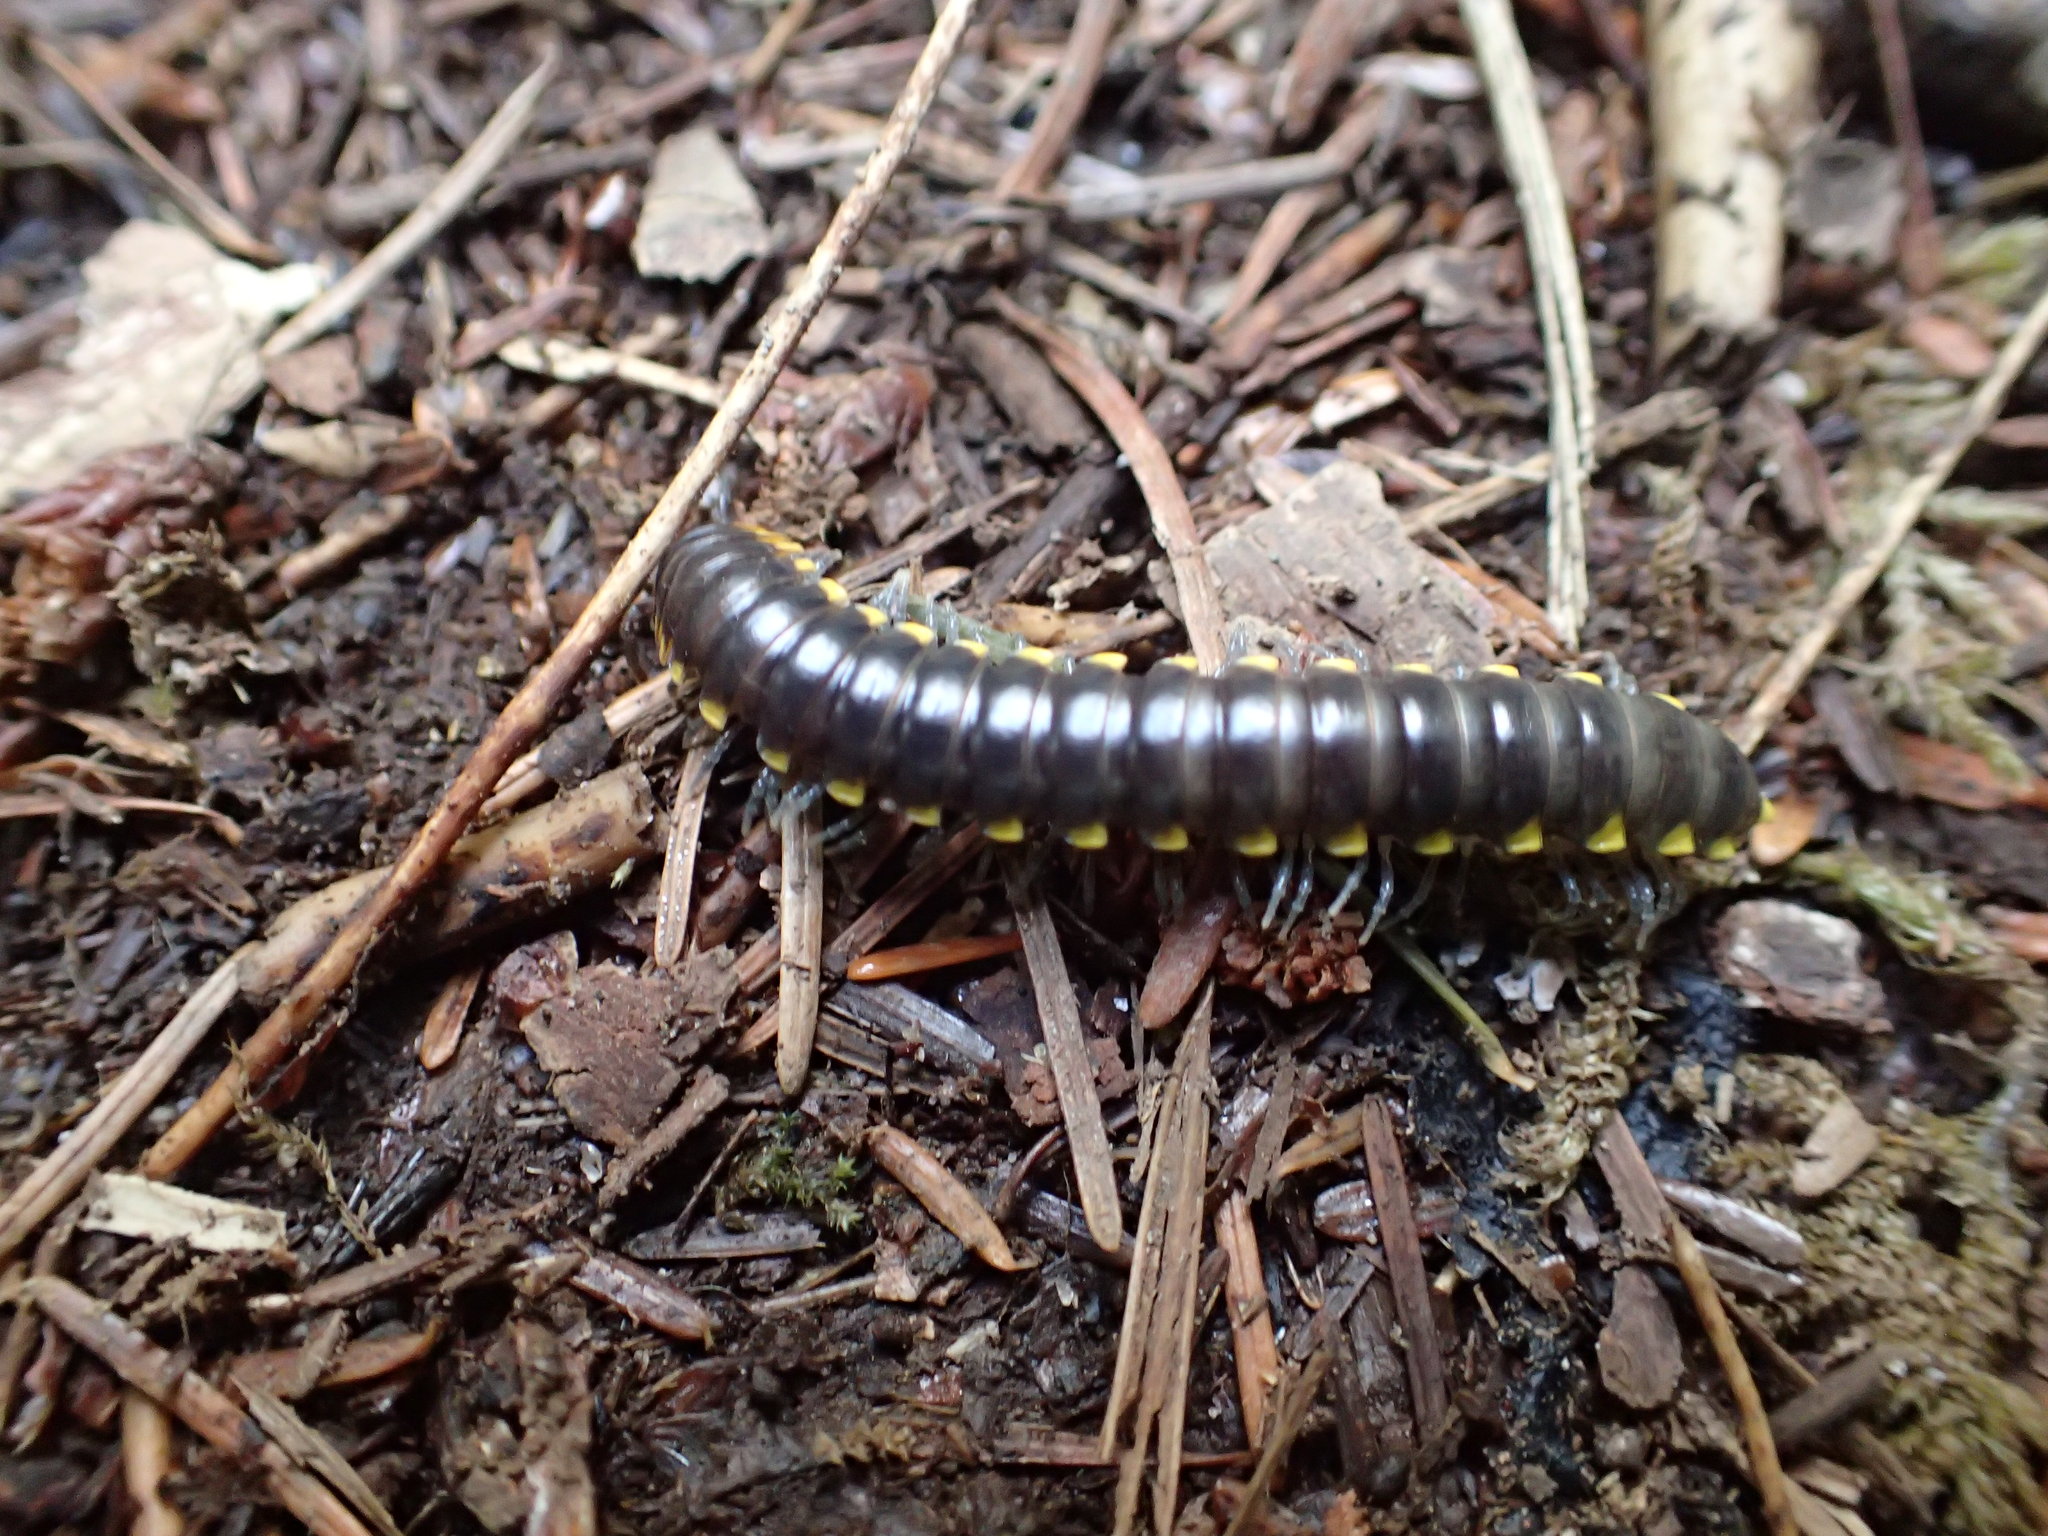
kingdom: Animalia
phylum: Arthropoda
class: Diplopoda
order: Polydesmida
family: Xystodesmidae
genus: Harpaphe
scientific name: Harpaphe haydeniana
